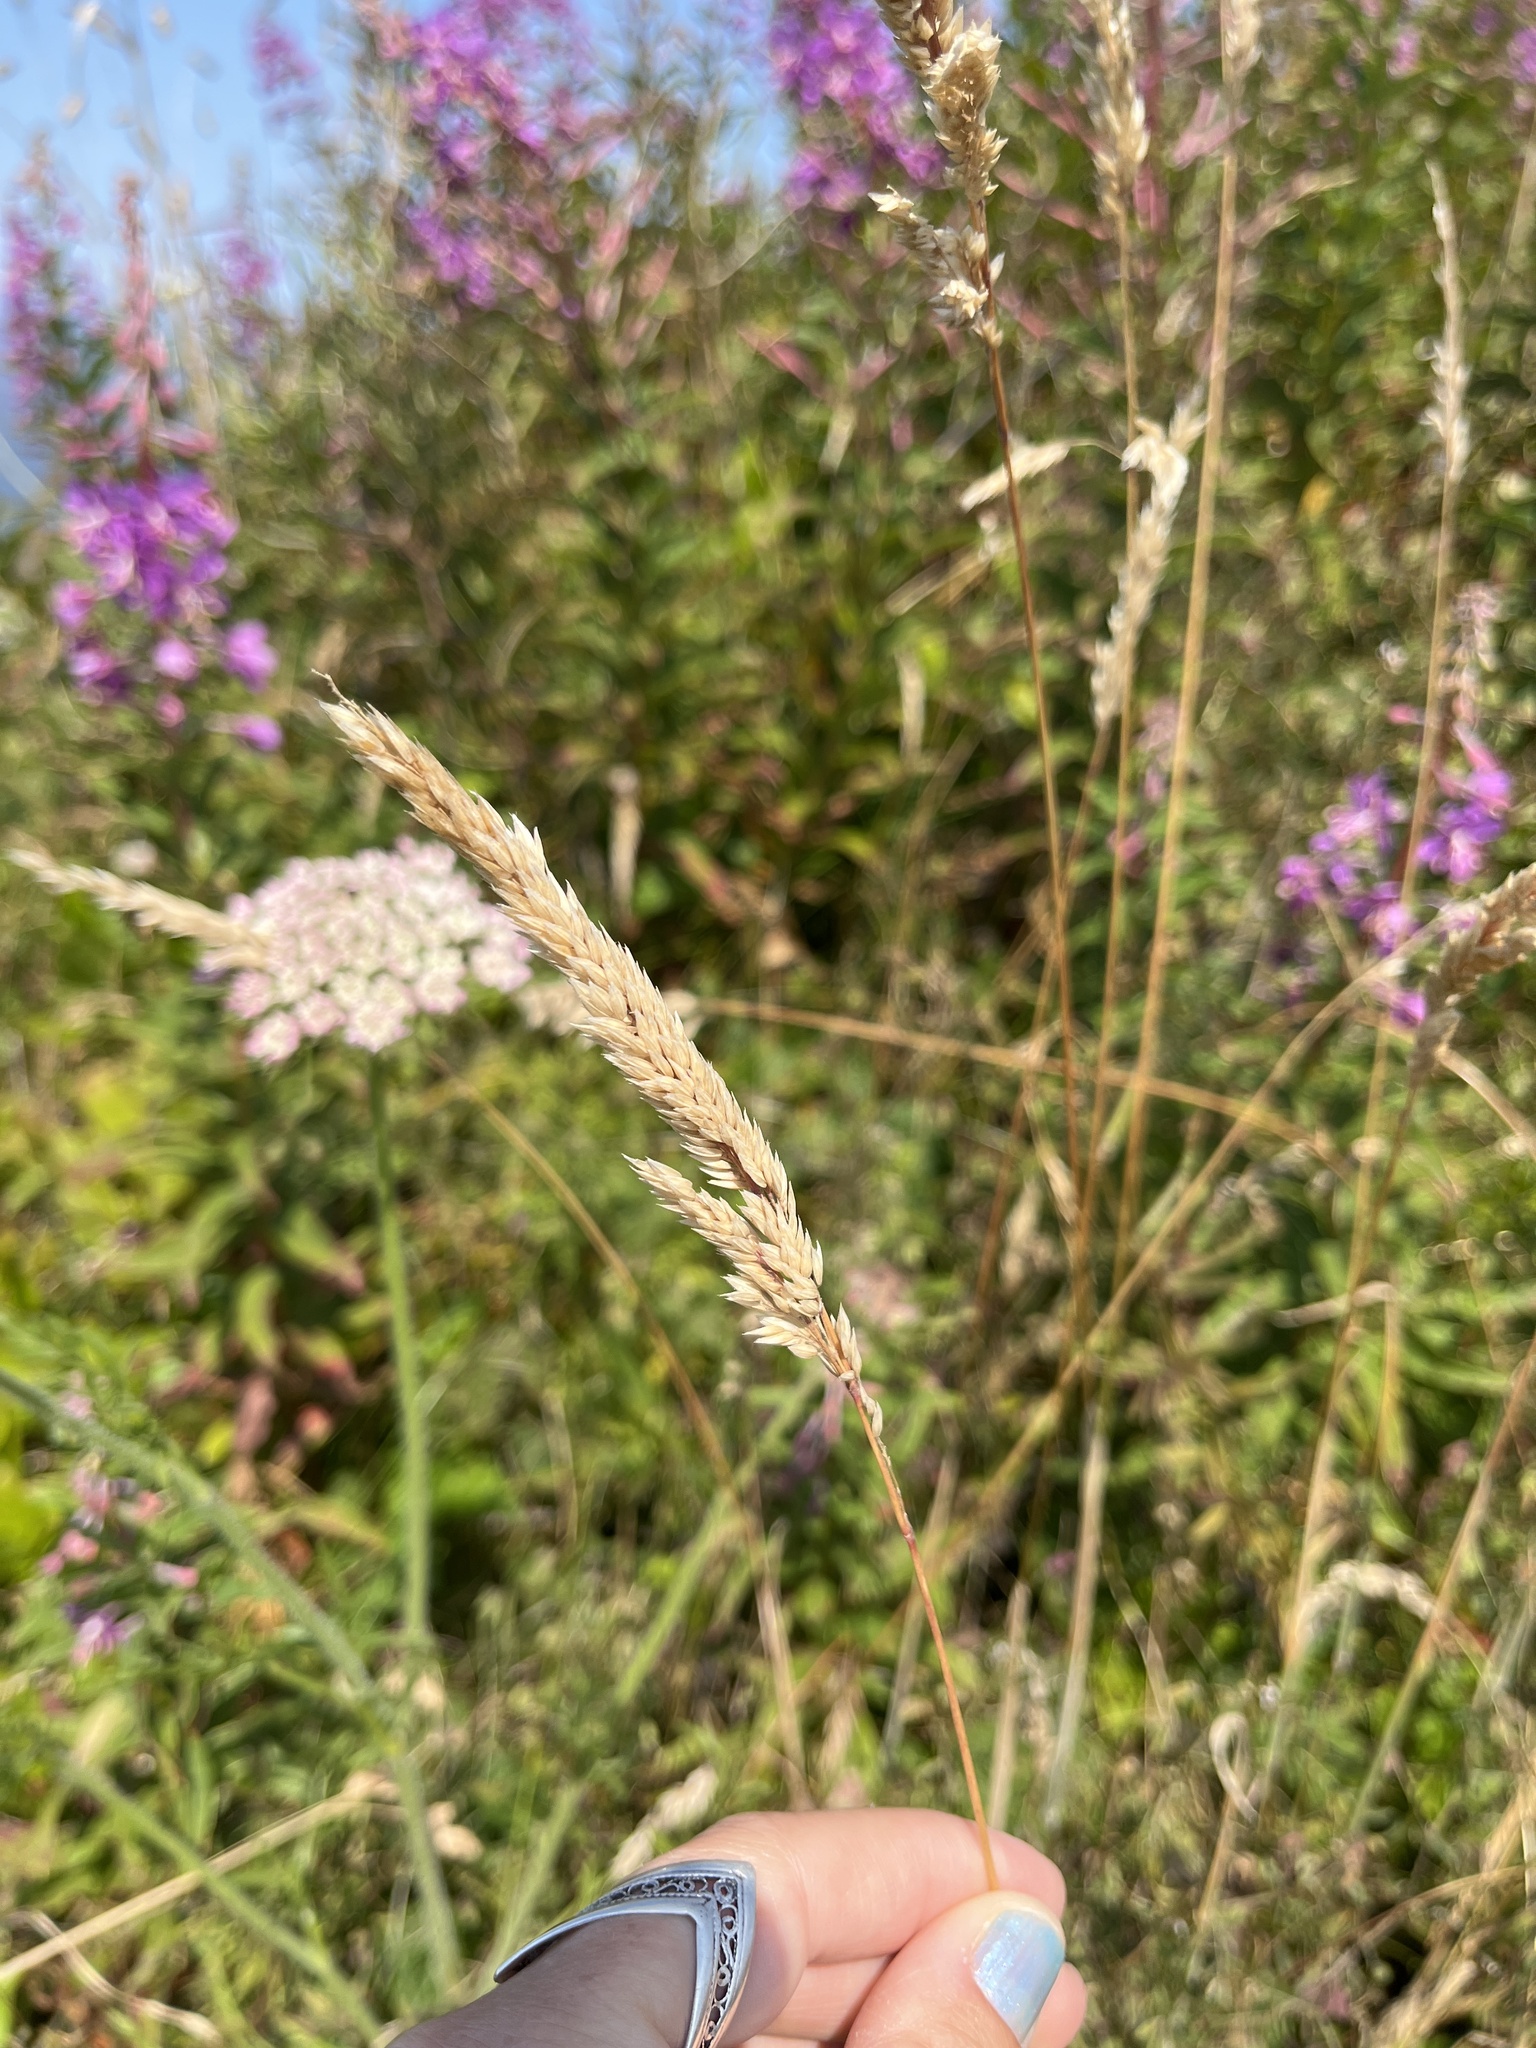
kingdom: Plantae
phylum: Tracheophyta
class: Liliopsida
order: Poales
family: Poaceae
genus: Holcus
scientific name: Holcus lanatus
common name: Yorkshire-fog
